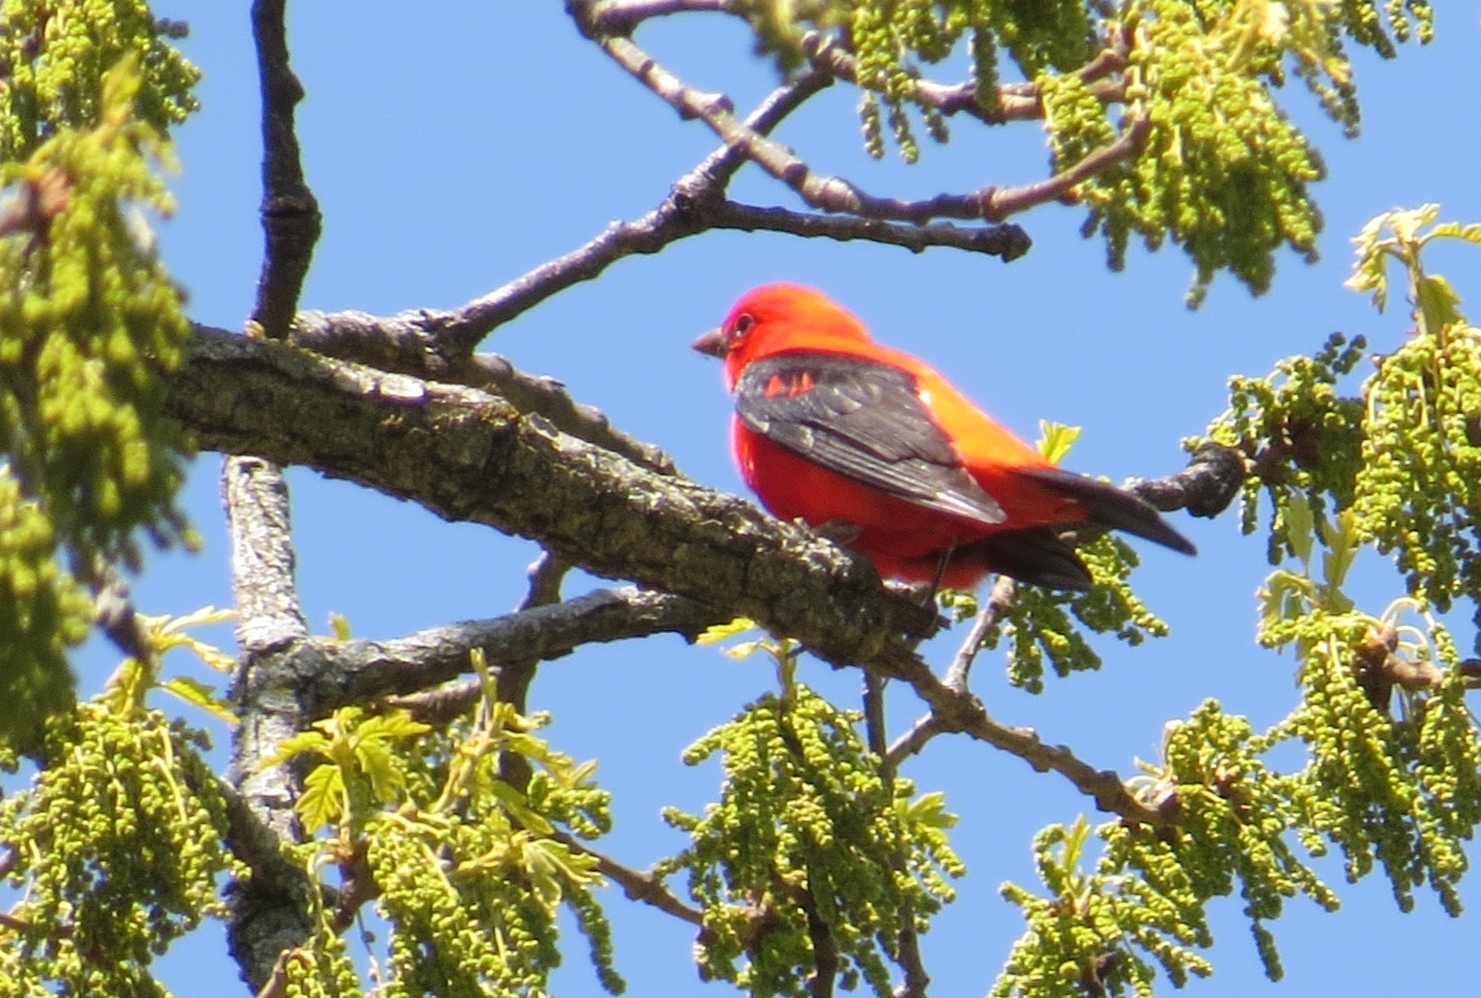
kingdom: Animalia
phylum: Chordata
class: Aves
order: Passeriformes
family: Cardinalidae
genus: Piranga
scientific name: Piranga olivacea
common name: Scarlet tanager
